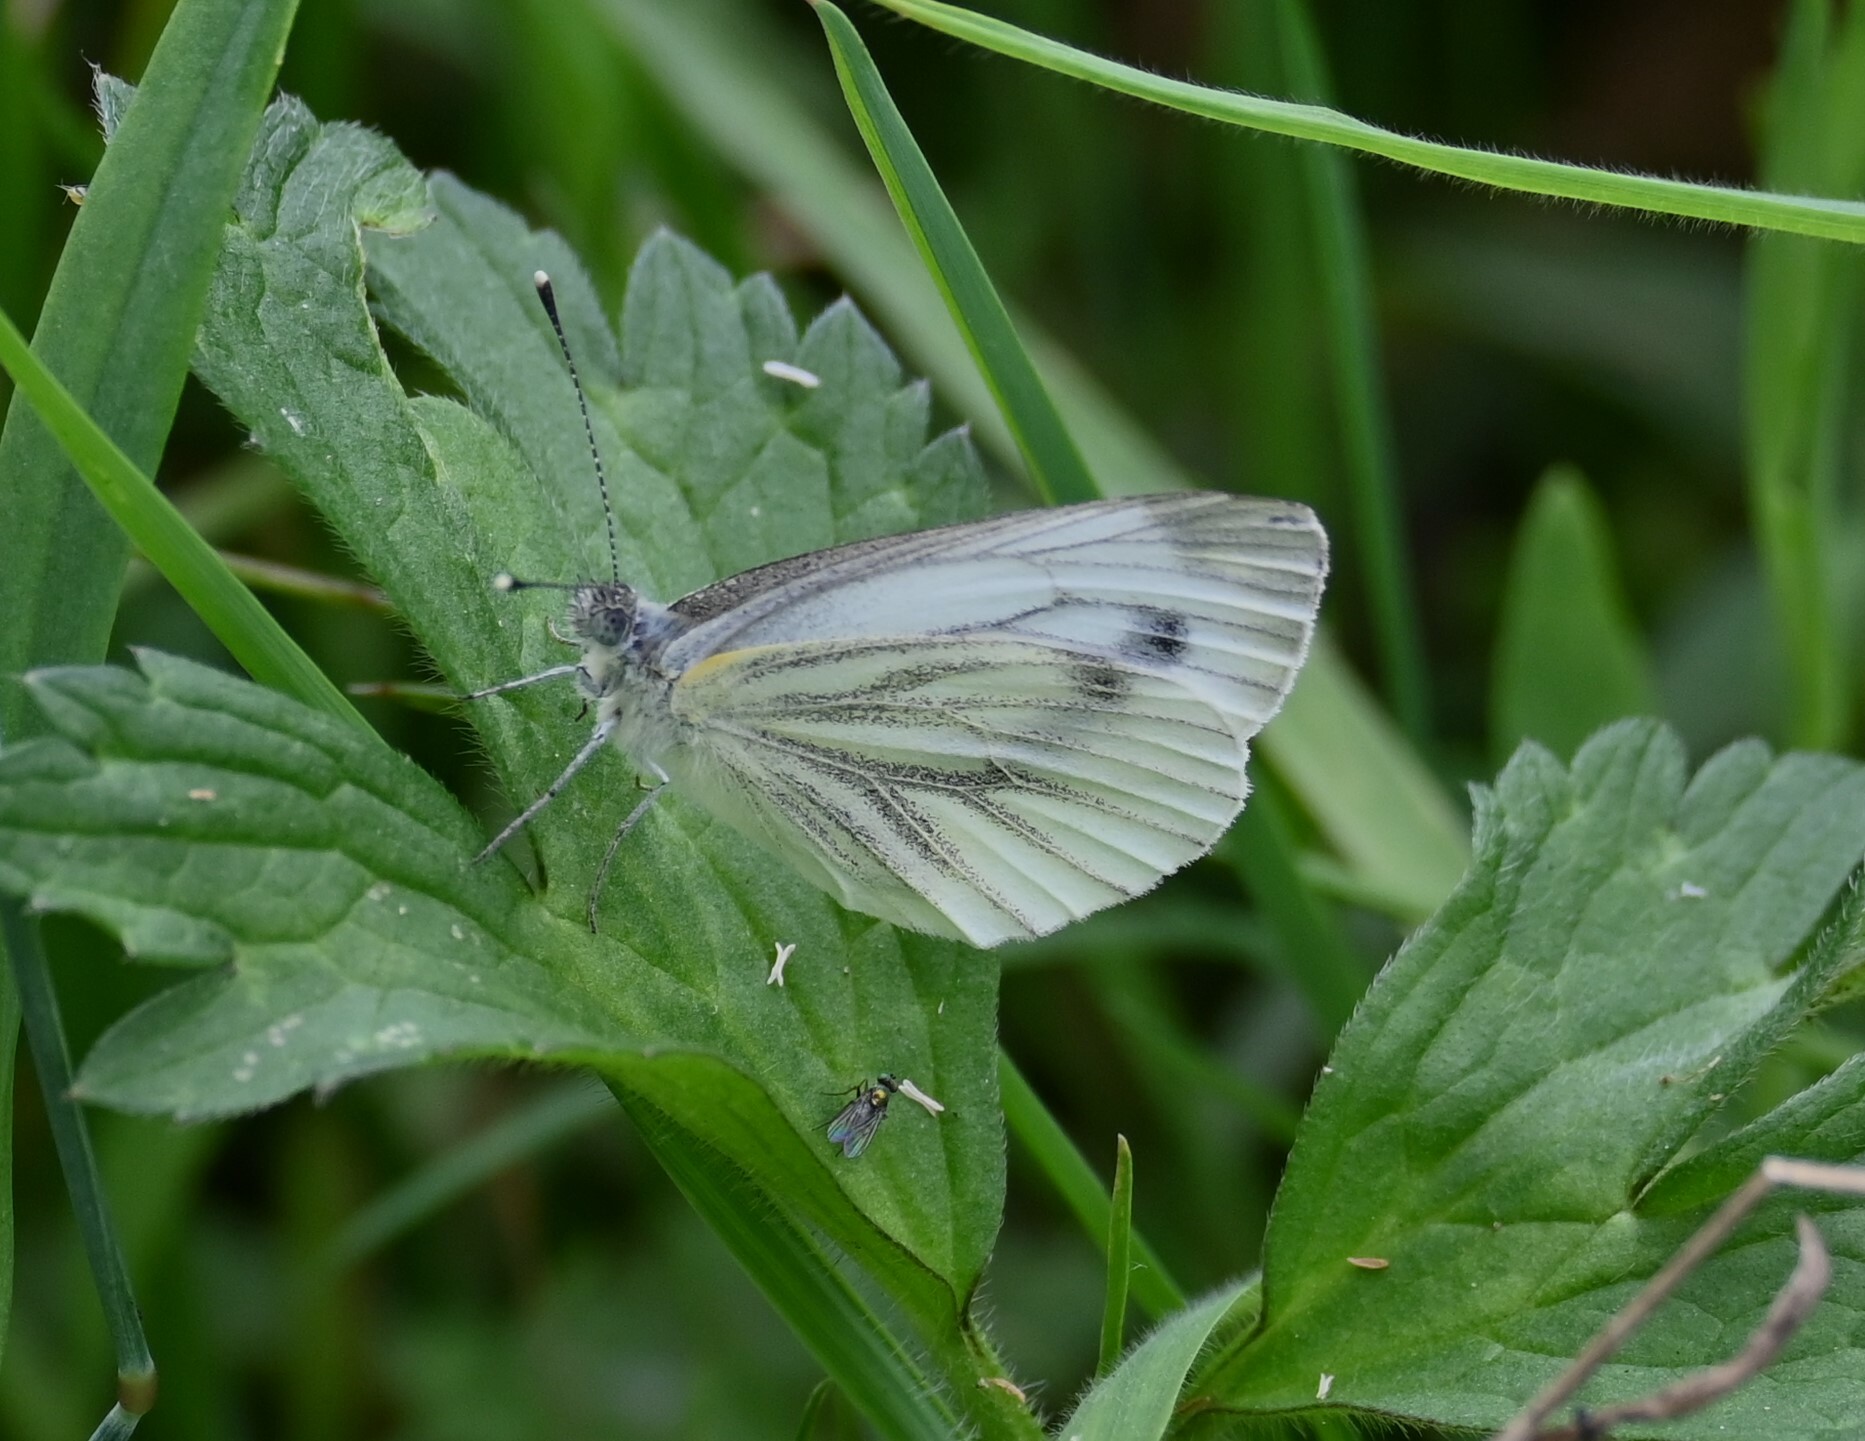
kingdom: Animalia
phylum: Arthropoda
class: Insecta
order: Lepidoptera
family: Pieridae
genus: Pieris
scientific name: Pieris napi
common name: Green-veined white
